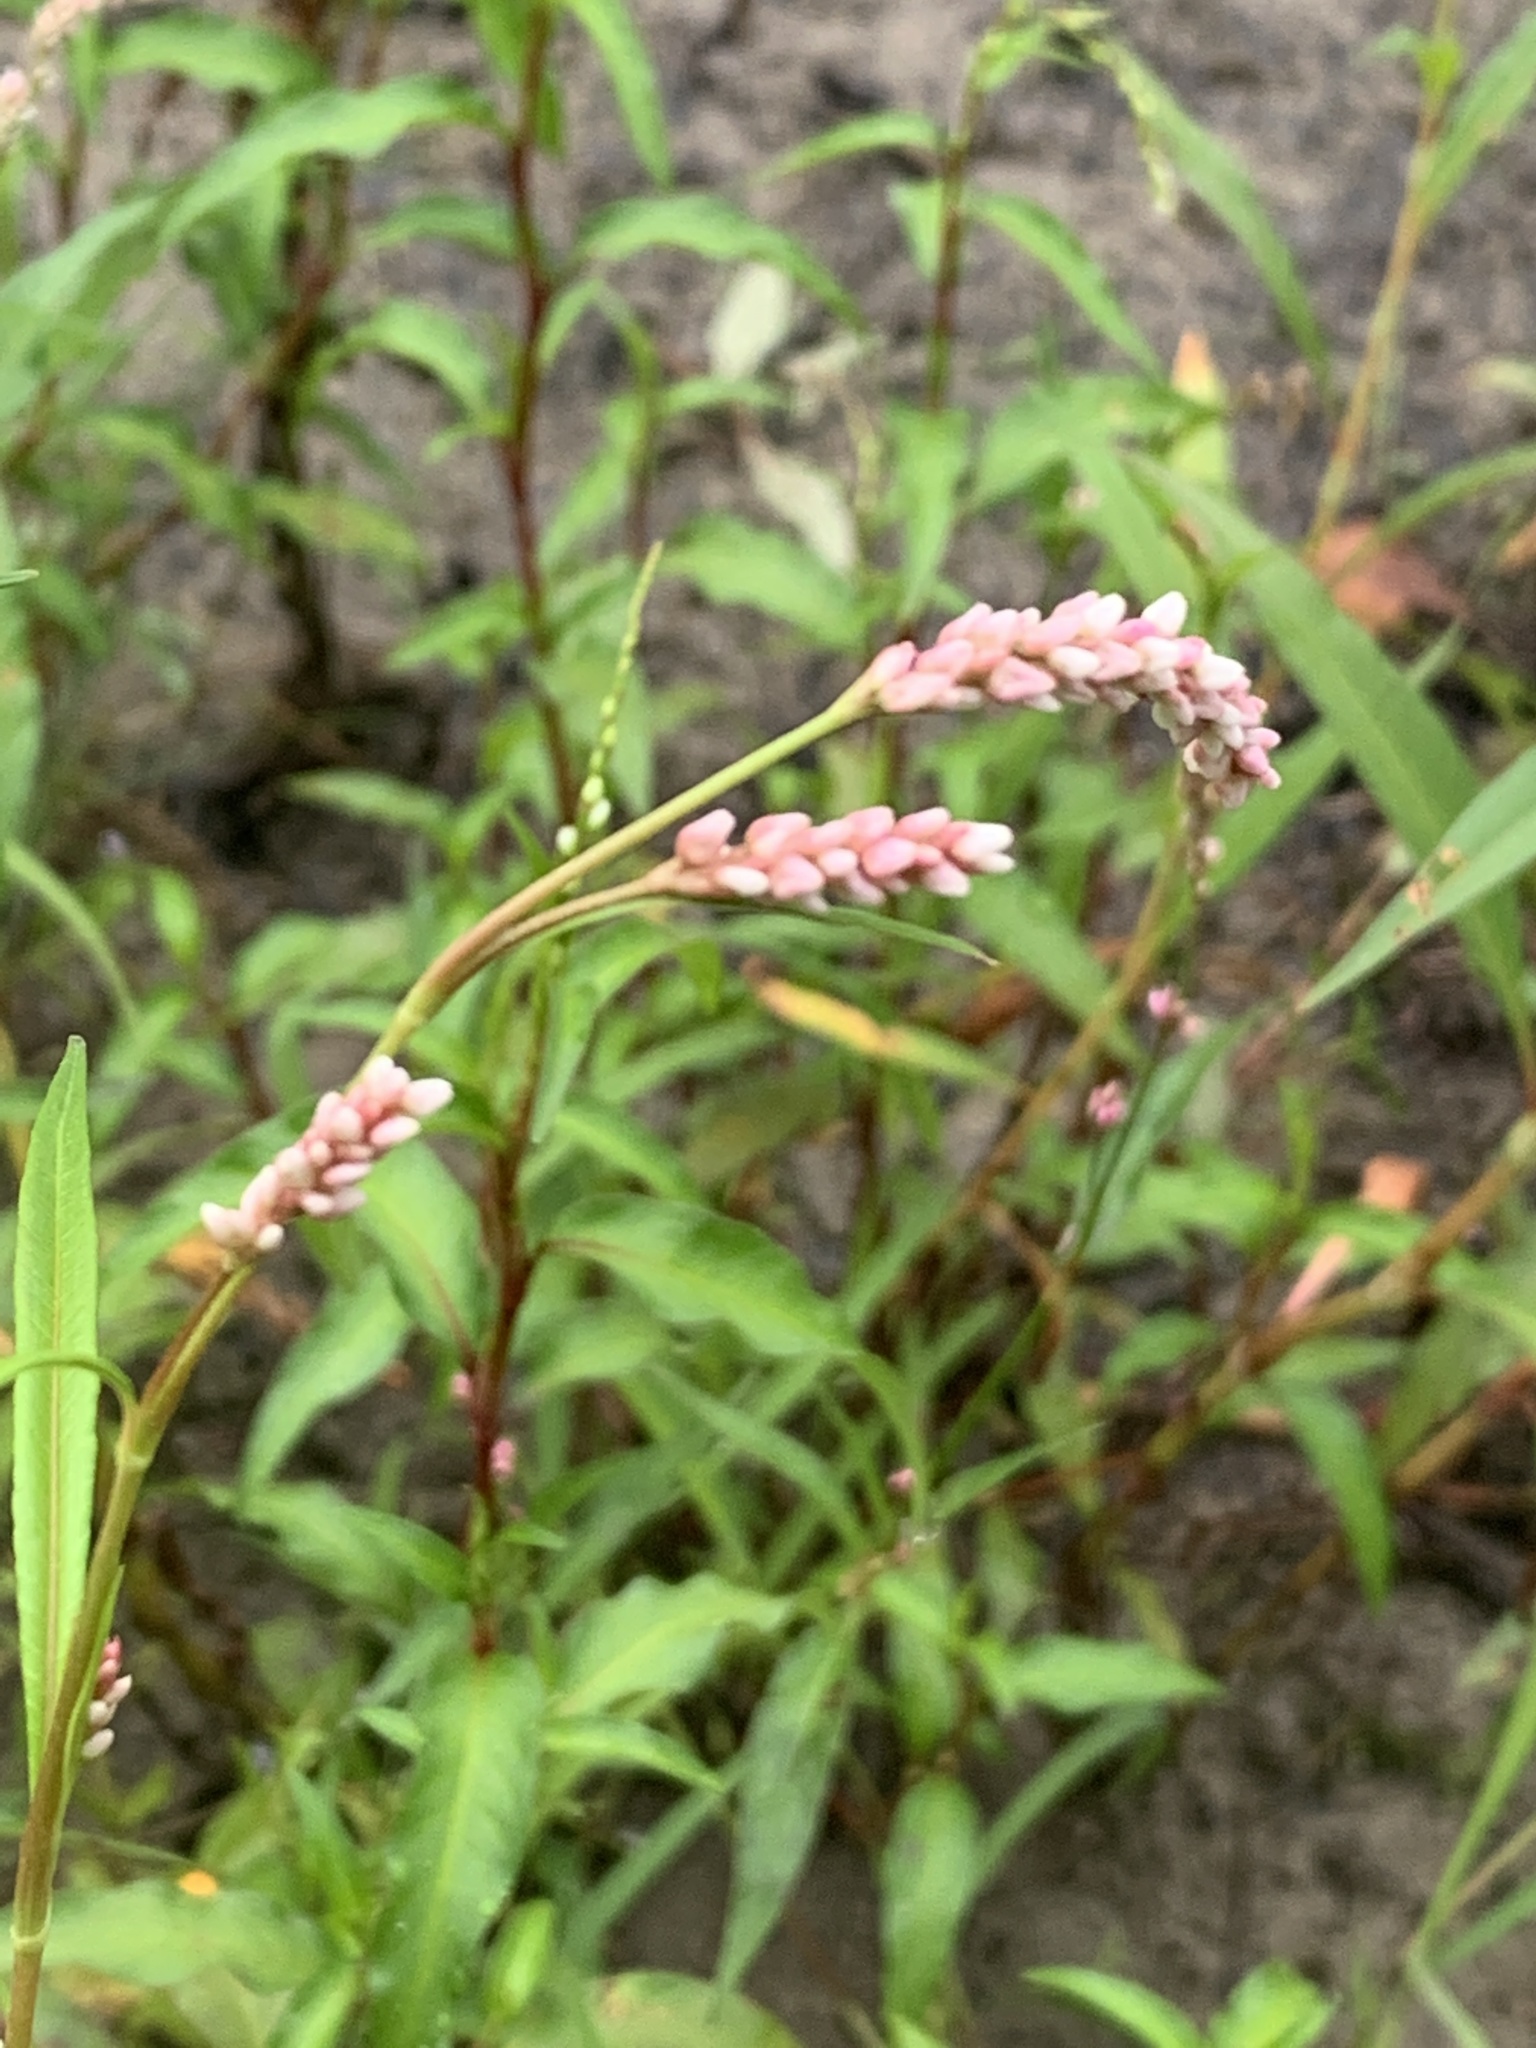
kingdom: Plantae
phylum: Tracheophyta
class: Magnoliopsida
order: Caryophyllales
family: Polygonaceae
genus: Persicaria
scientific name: Persicaria lapathifolia
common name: Curlytop knotweed
